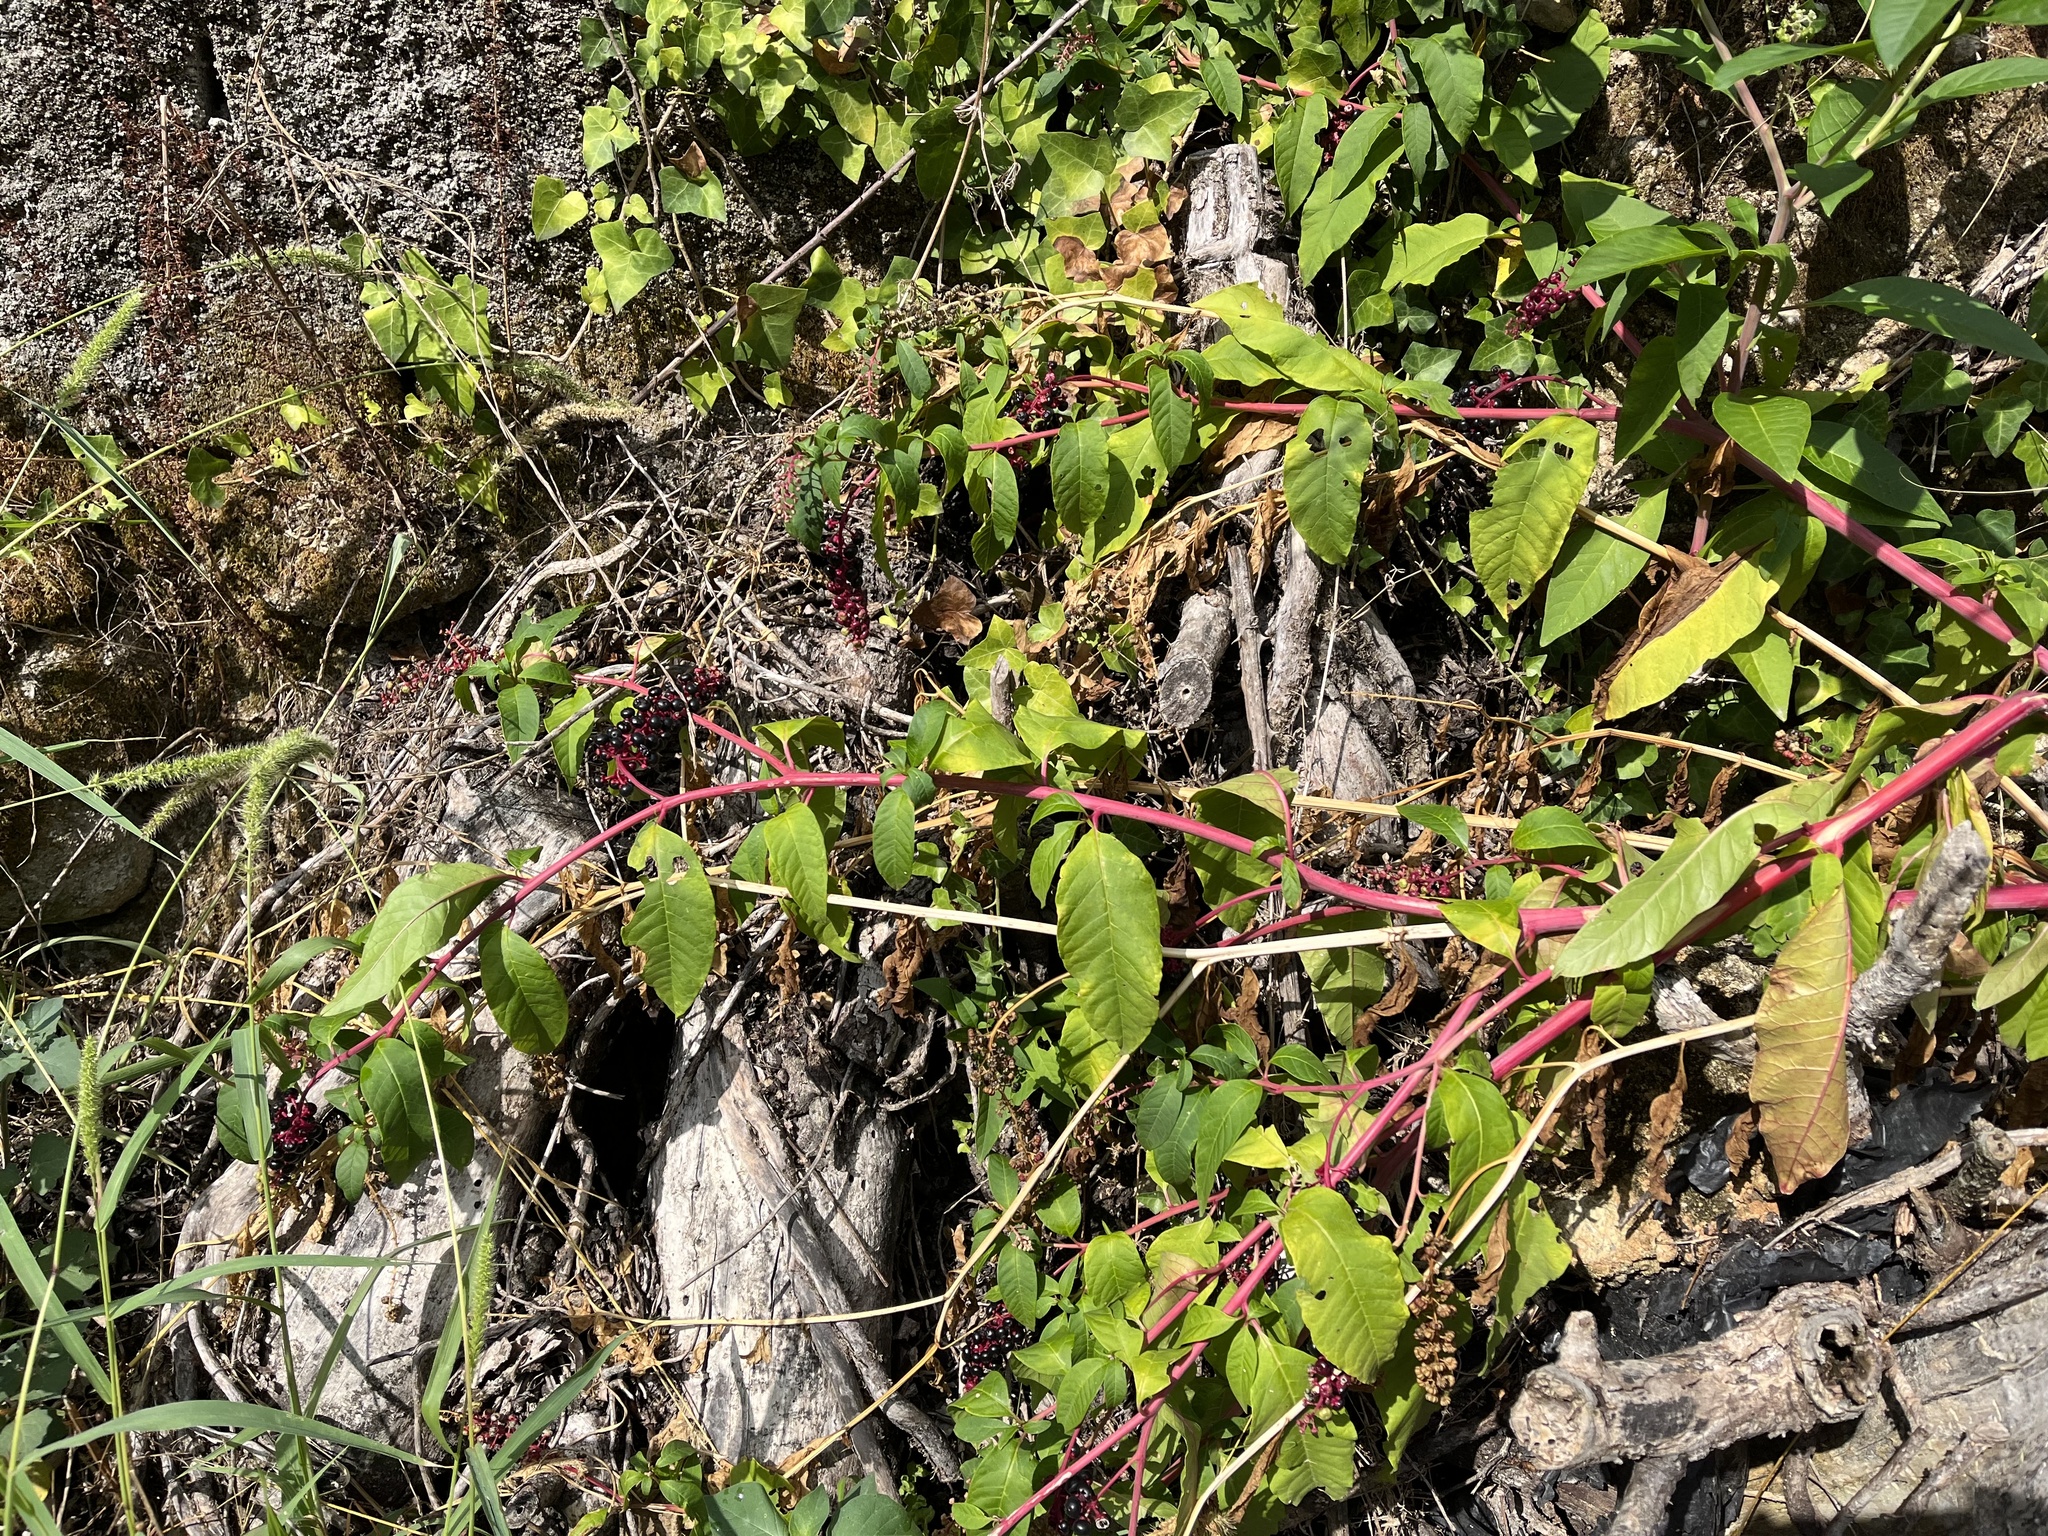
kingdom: Plantae
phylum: Tracheophyta
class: Magnoliopsida
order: Caryophyllales
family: Phytolaccaceae
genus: Phytolacca
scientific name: Phytolacca americana
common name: American pokeweed
